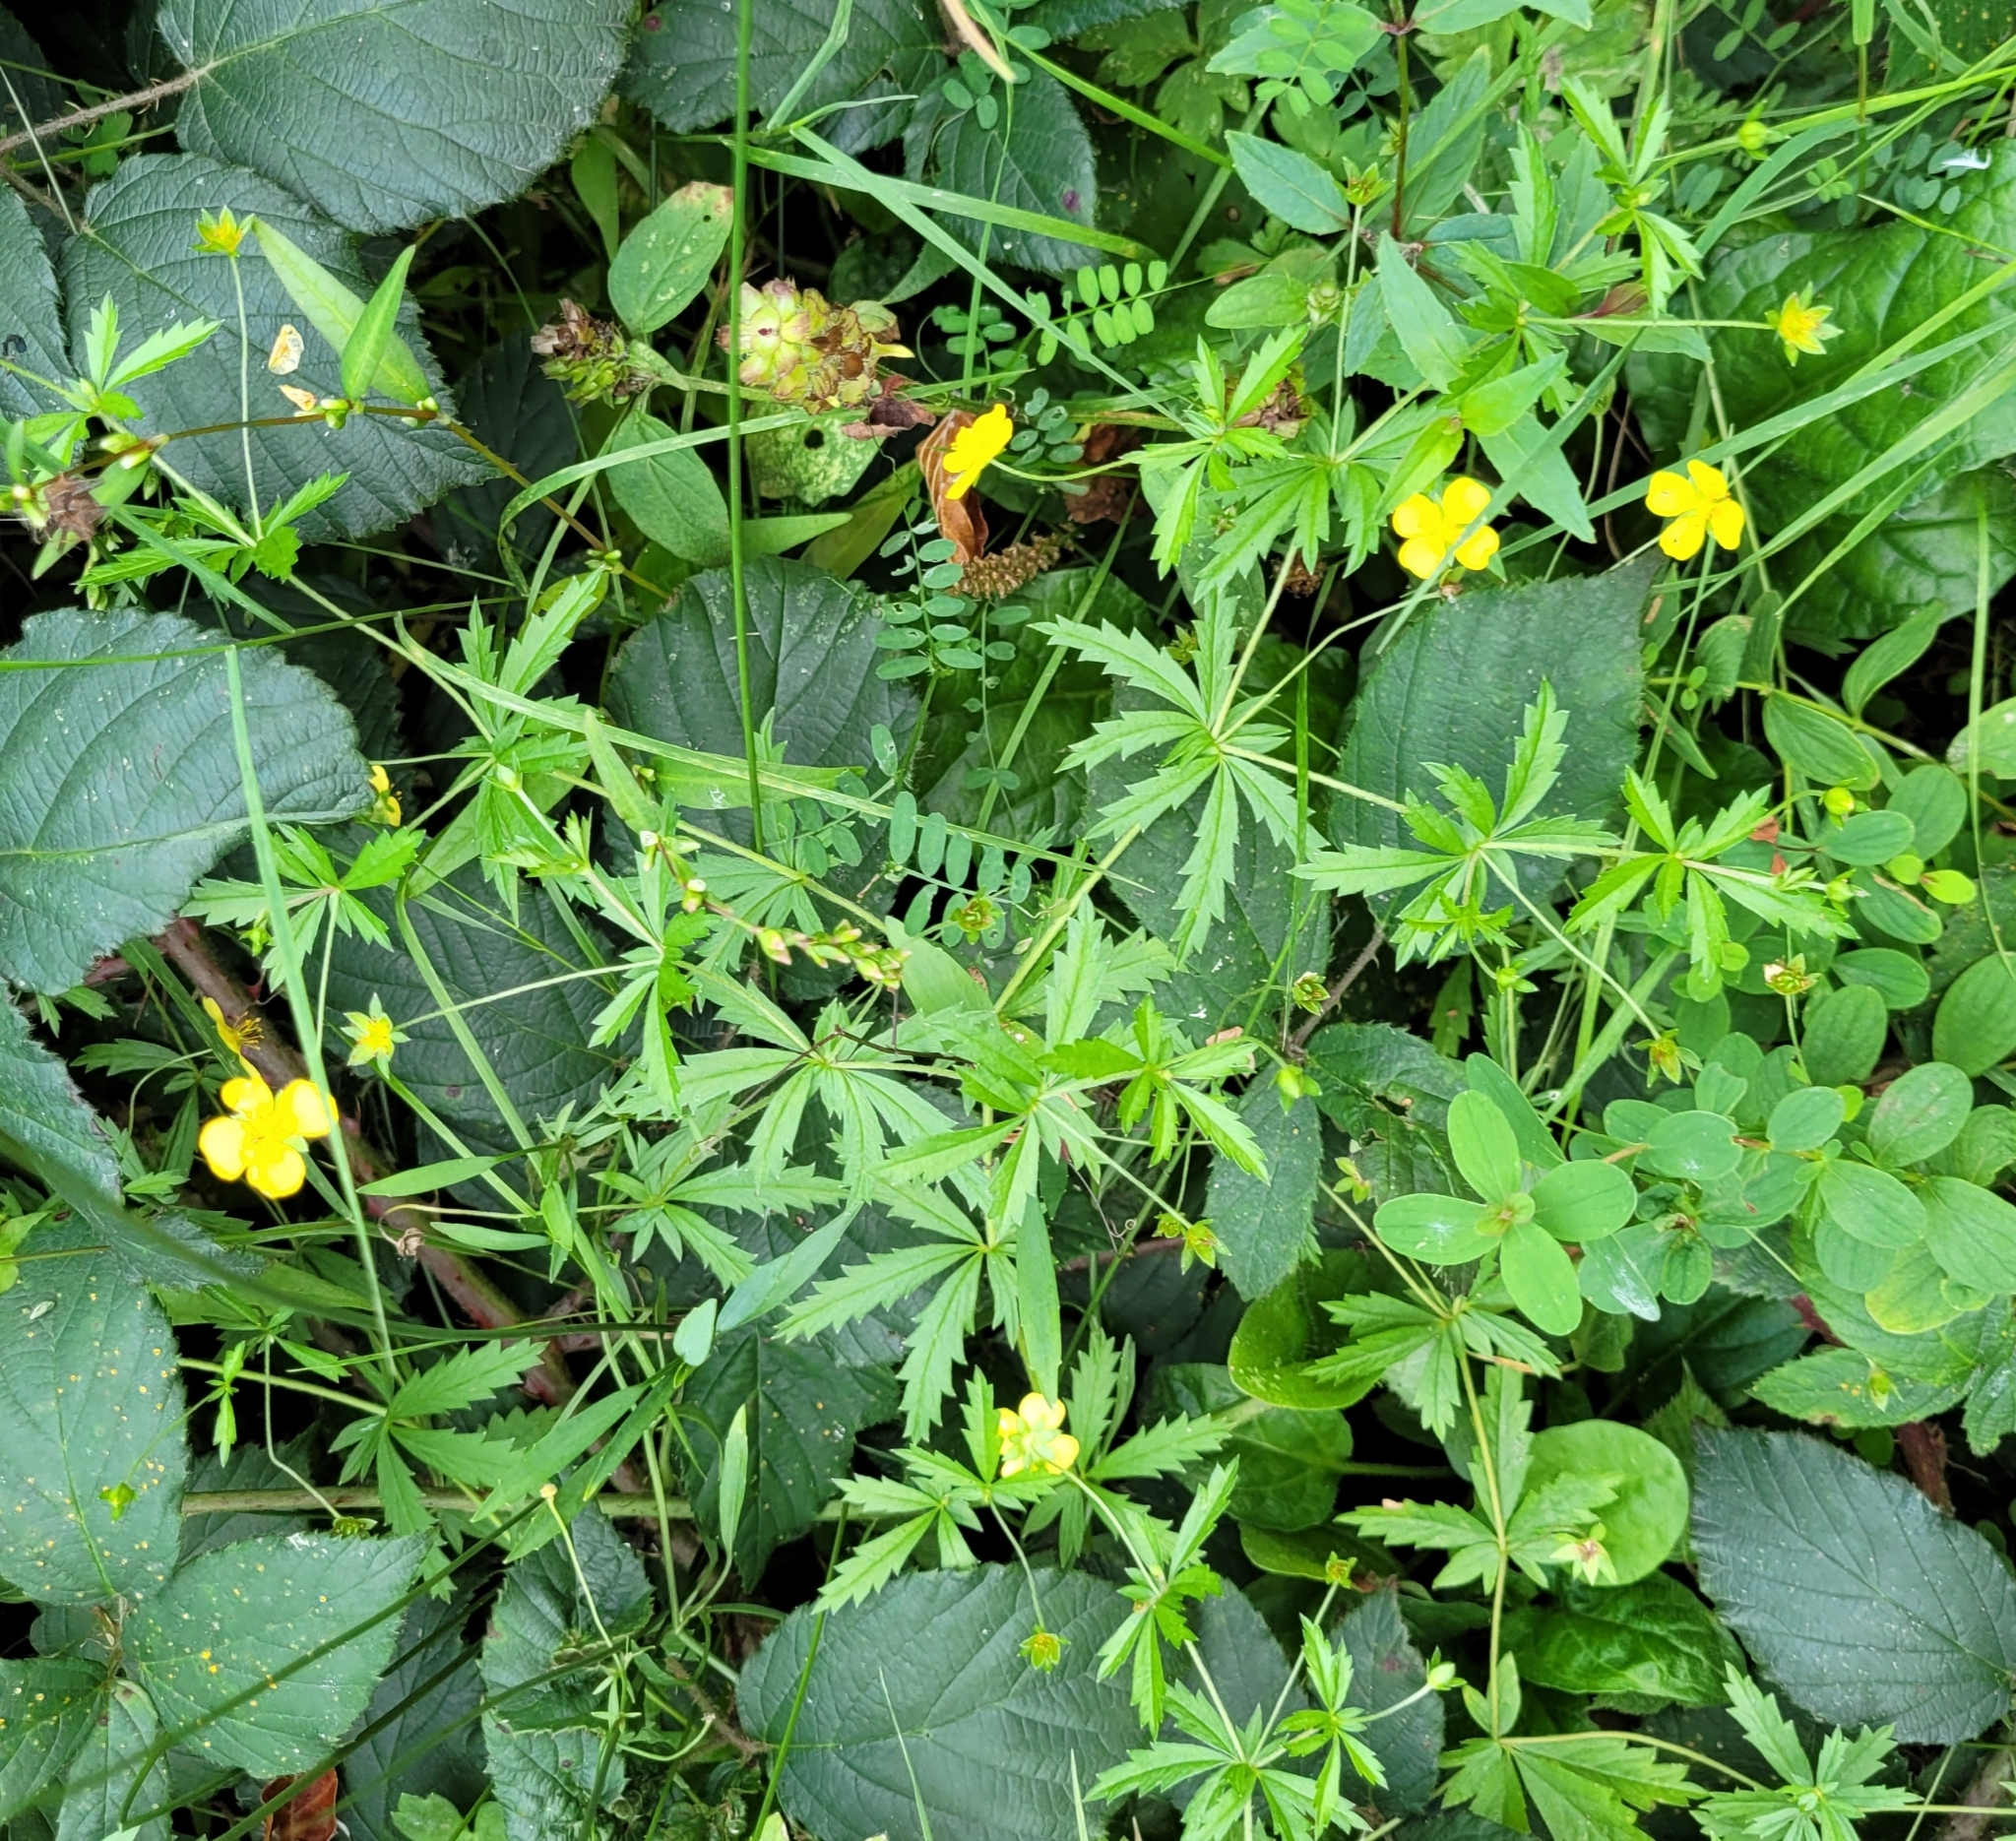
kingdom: Plantae
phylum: Tracheophyta
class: Magnoliopsida
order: Rosales
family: Rosaceae
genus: Potentilla
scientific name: Potentilla erecta
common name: Tormentil
